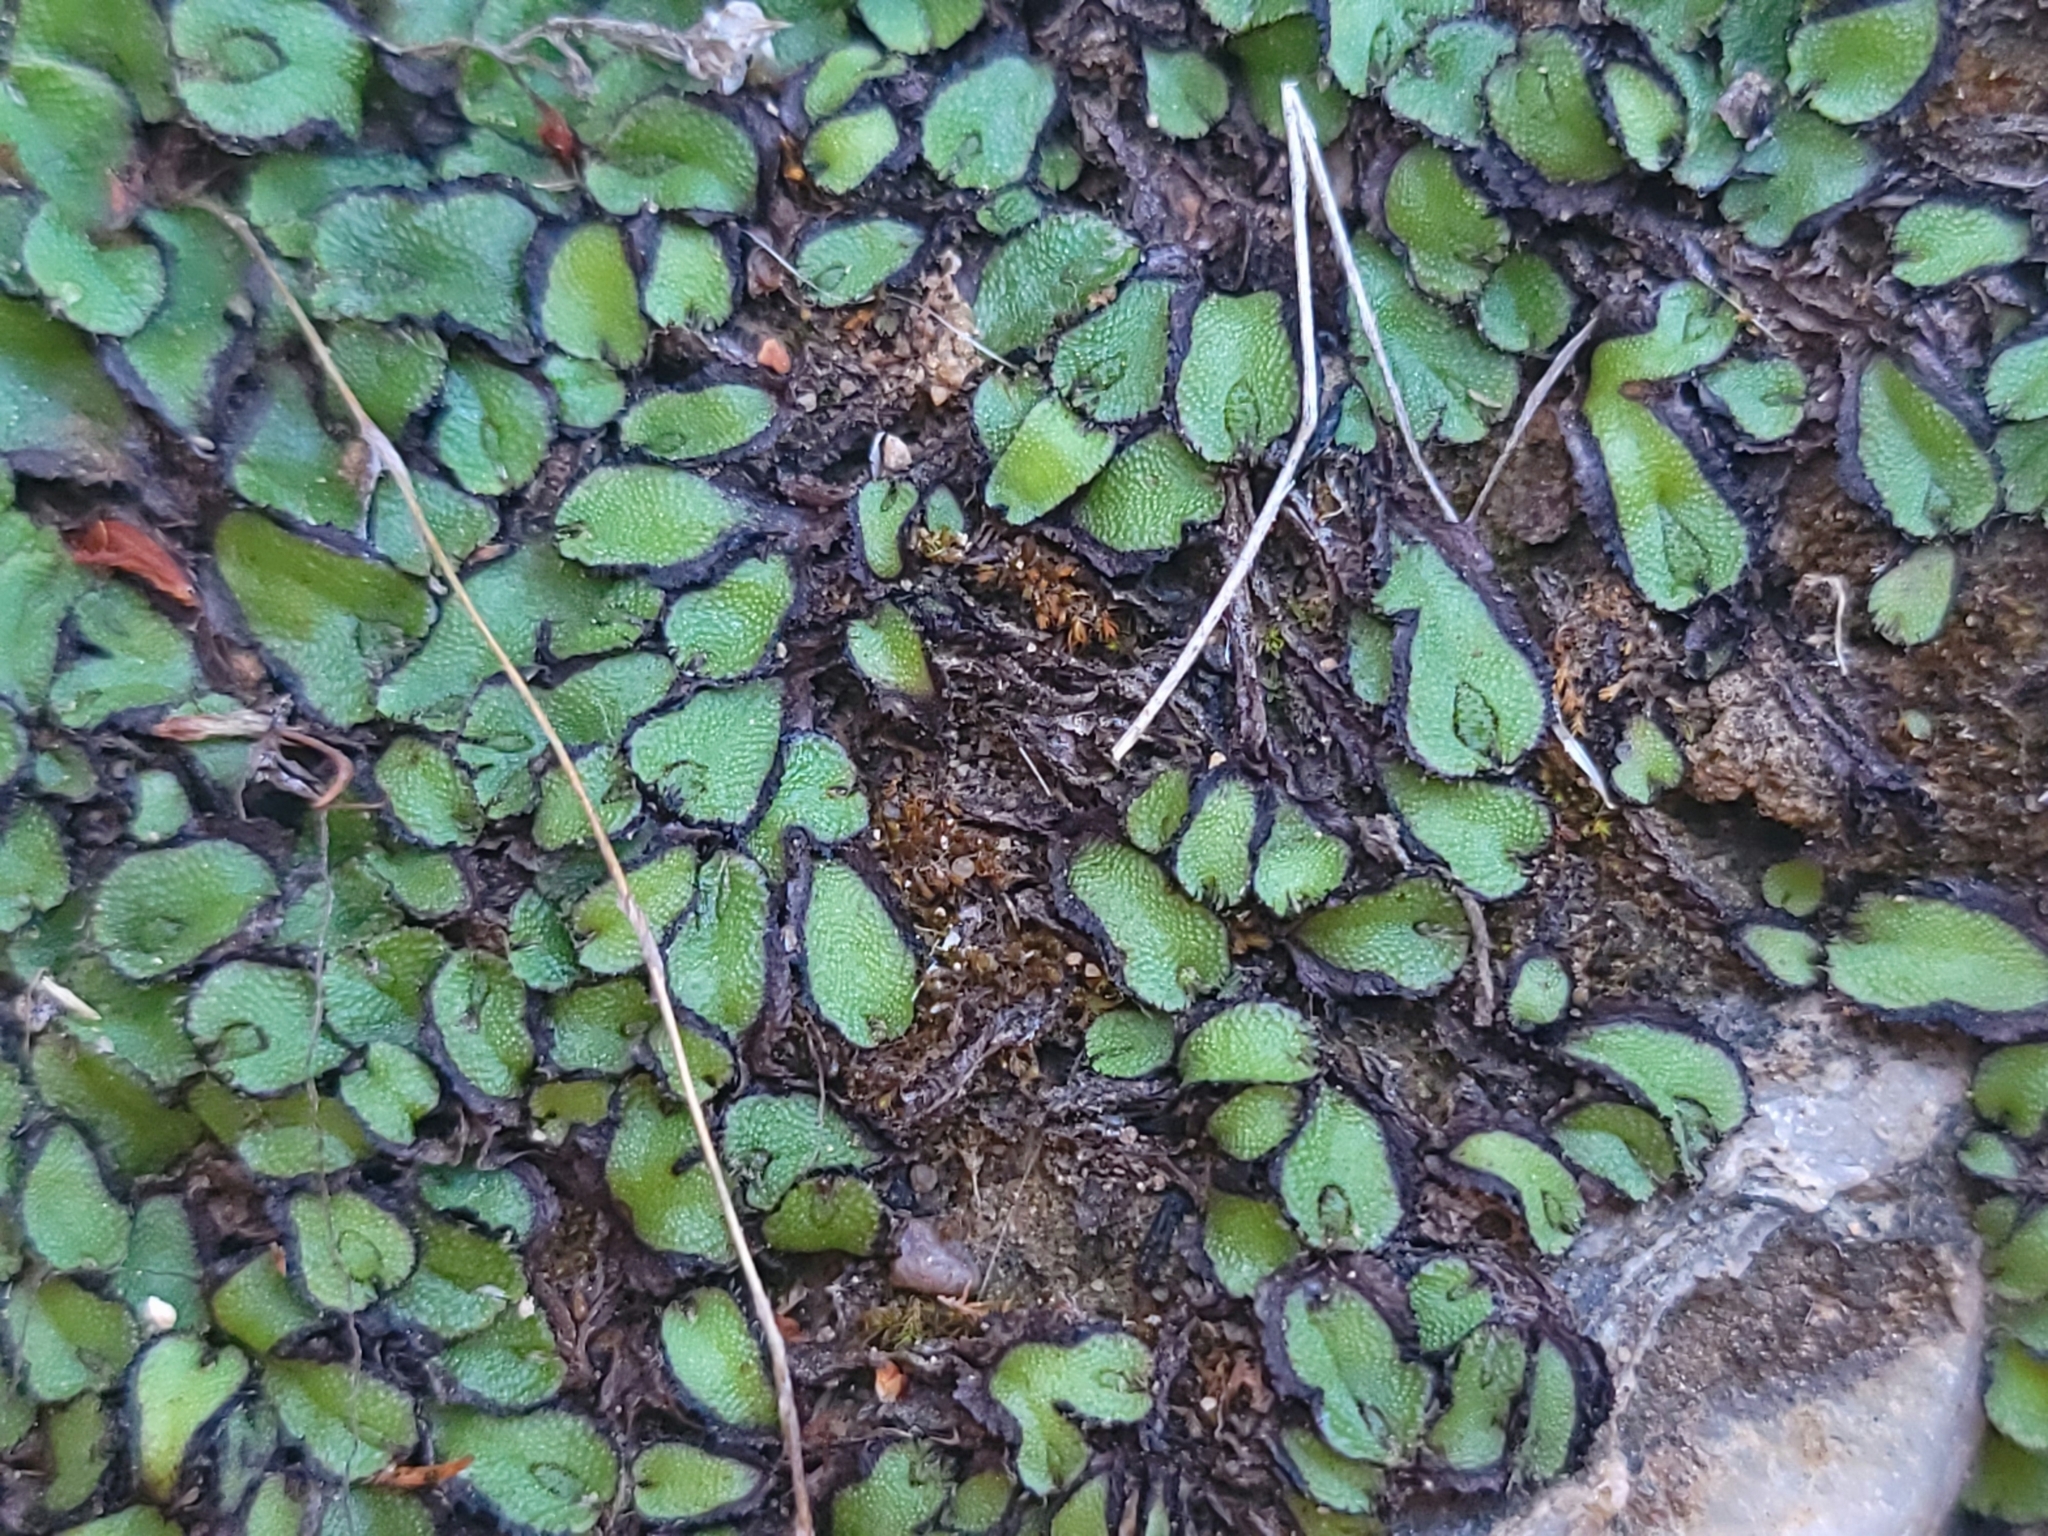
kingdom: Plantae
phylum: Marchantiophyta
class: Marchantiopsida
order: Marchantiales
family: Aytoniaceae
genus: Asterella
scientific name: Asterella californica
